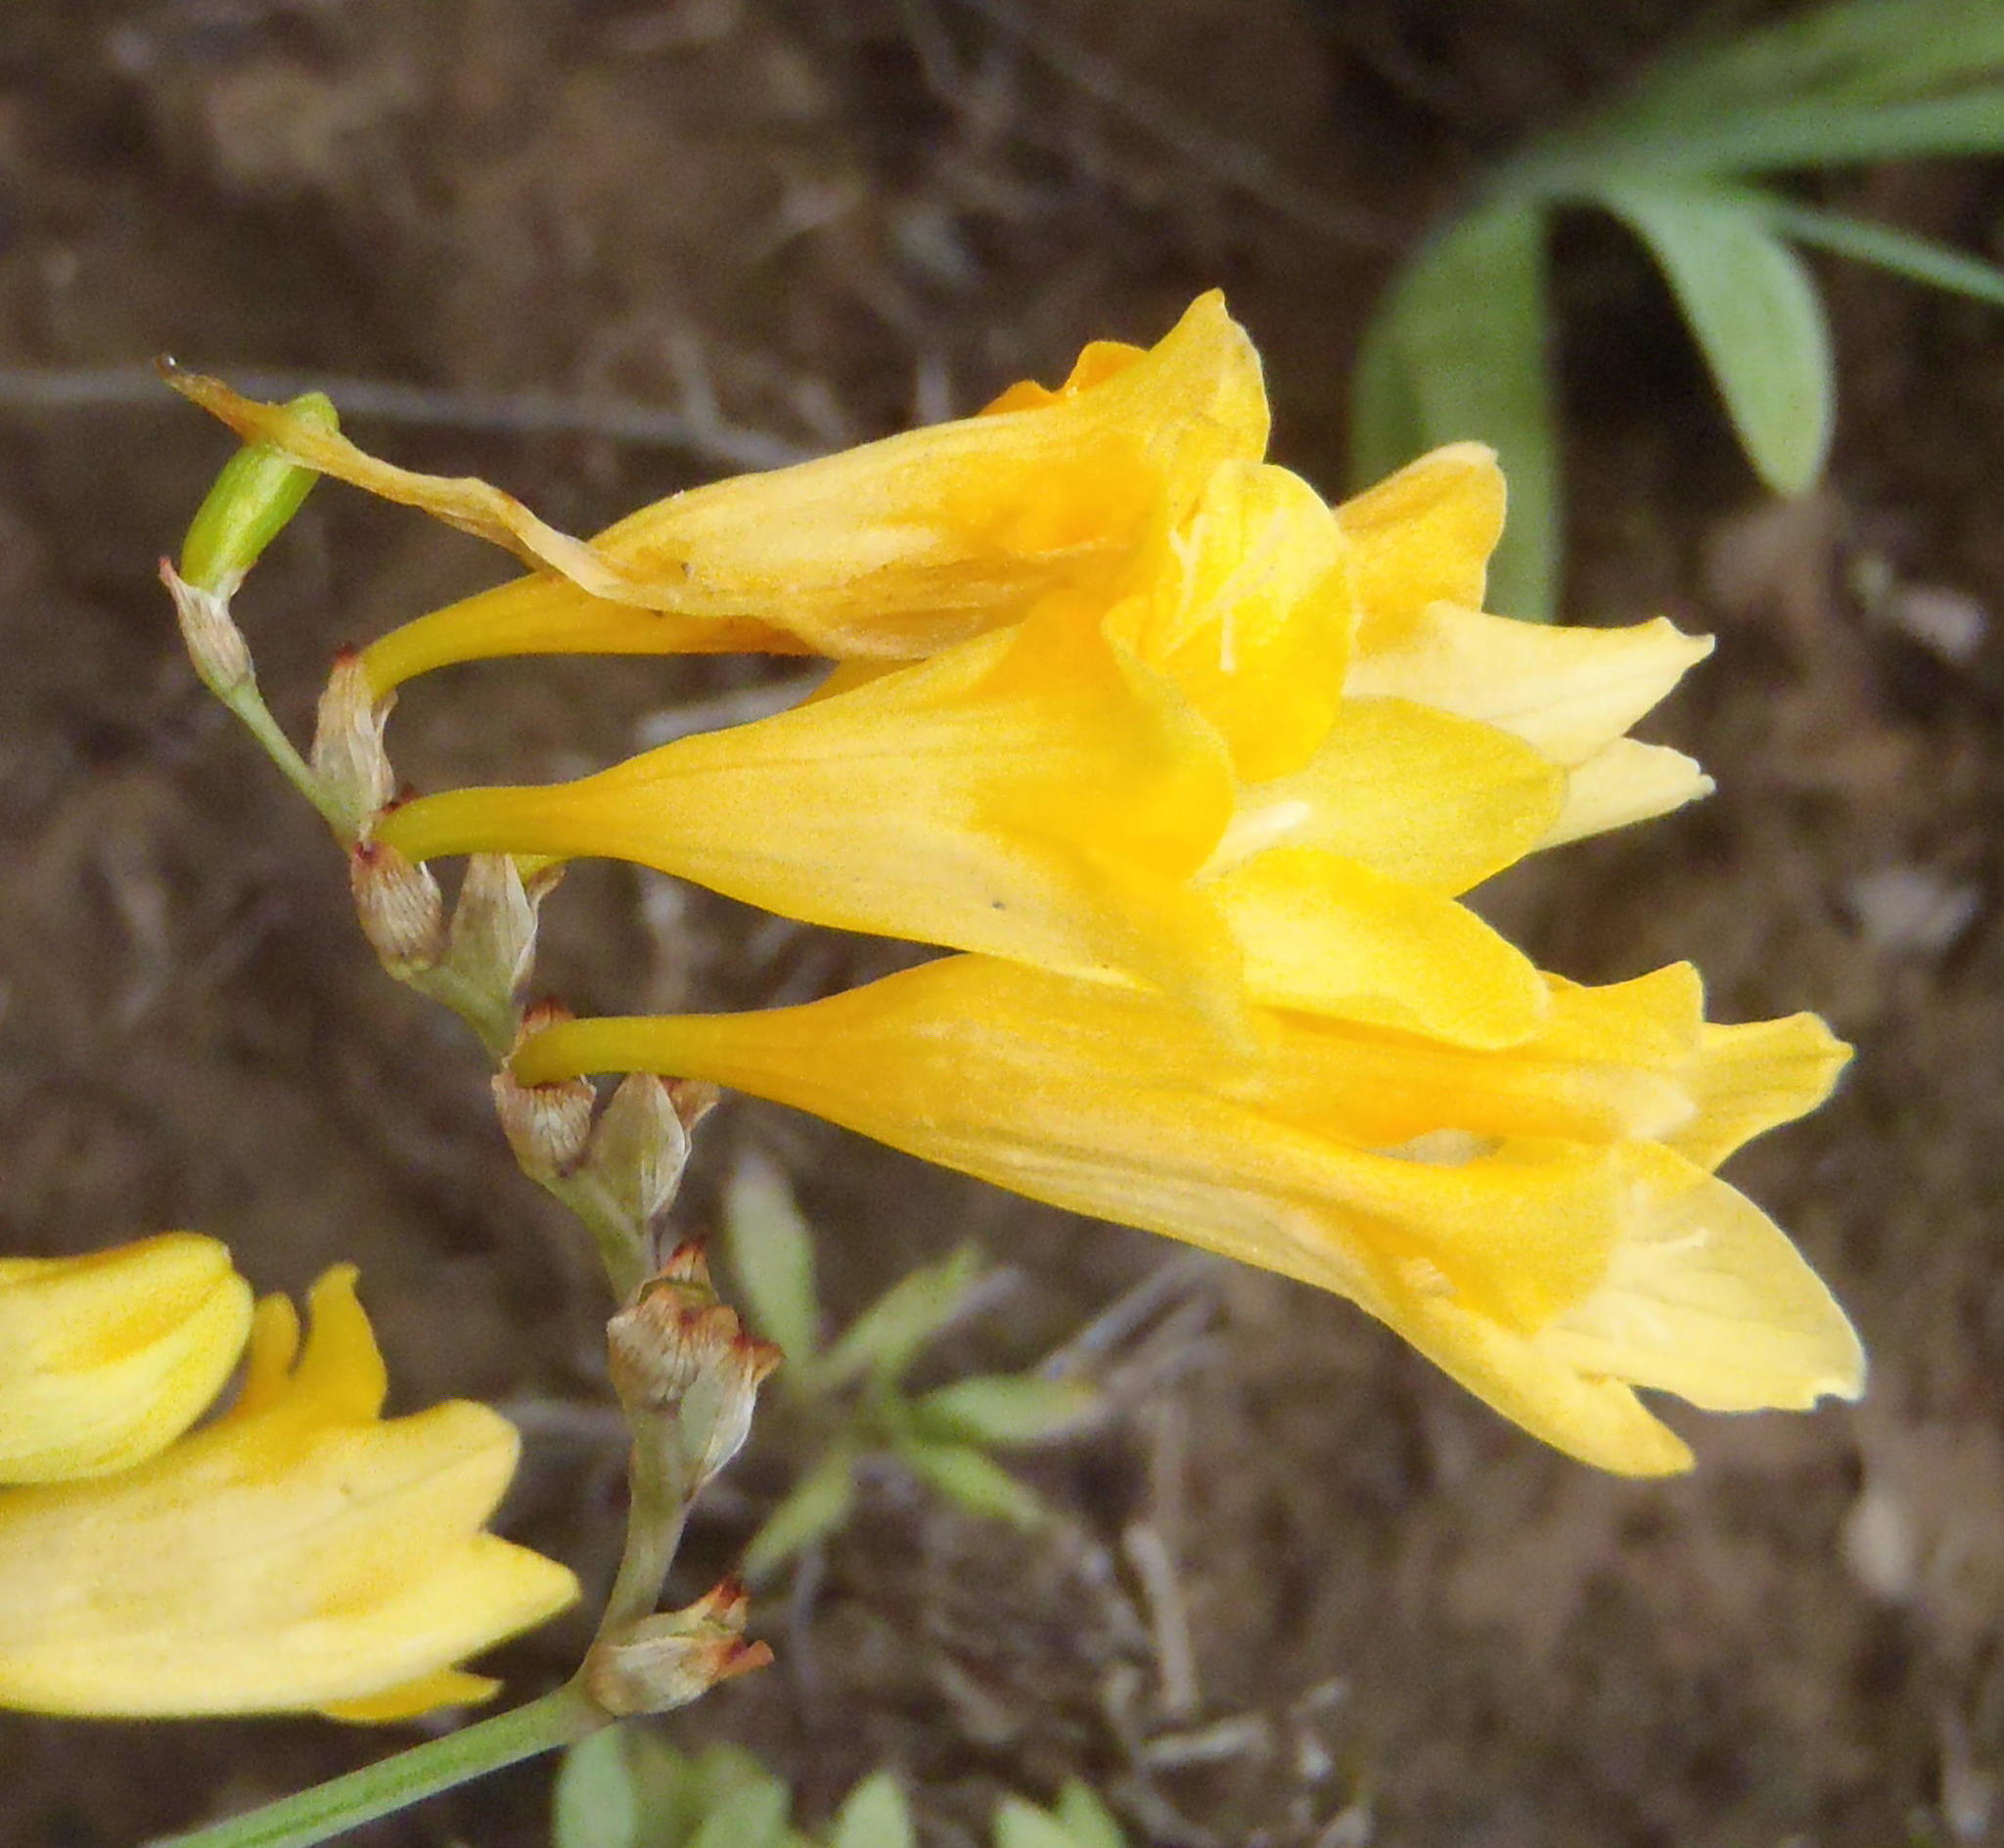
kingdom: Plantae
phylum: Tracheophyta
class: Liliopsida
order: Asparagales
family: Iridaceae
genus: Freesia
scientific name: Freesia corymbosa
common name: Common freesia
